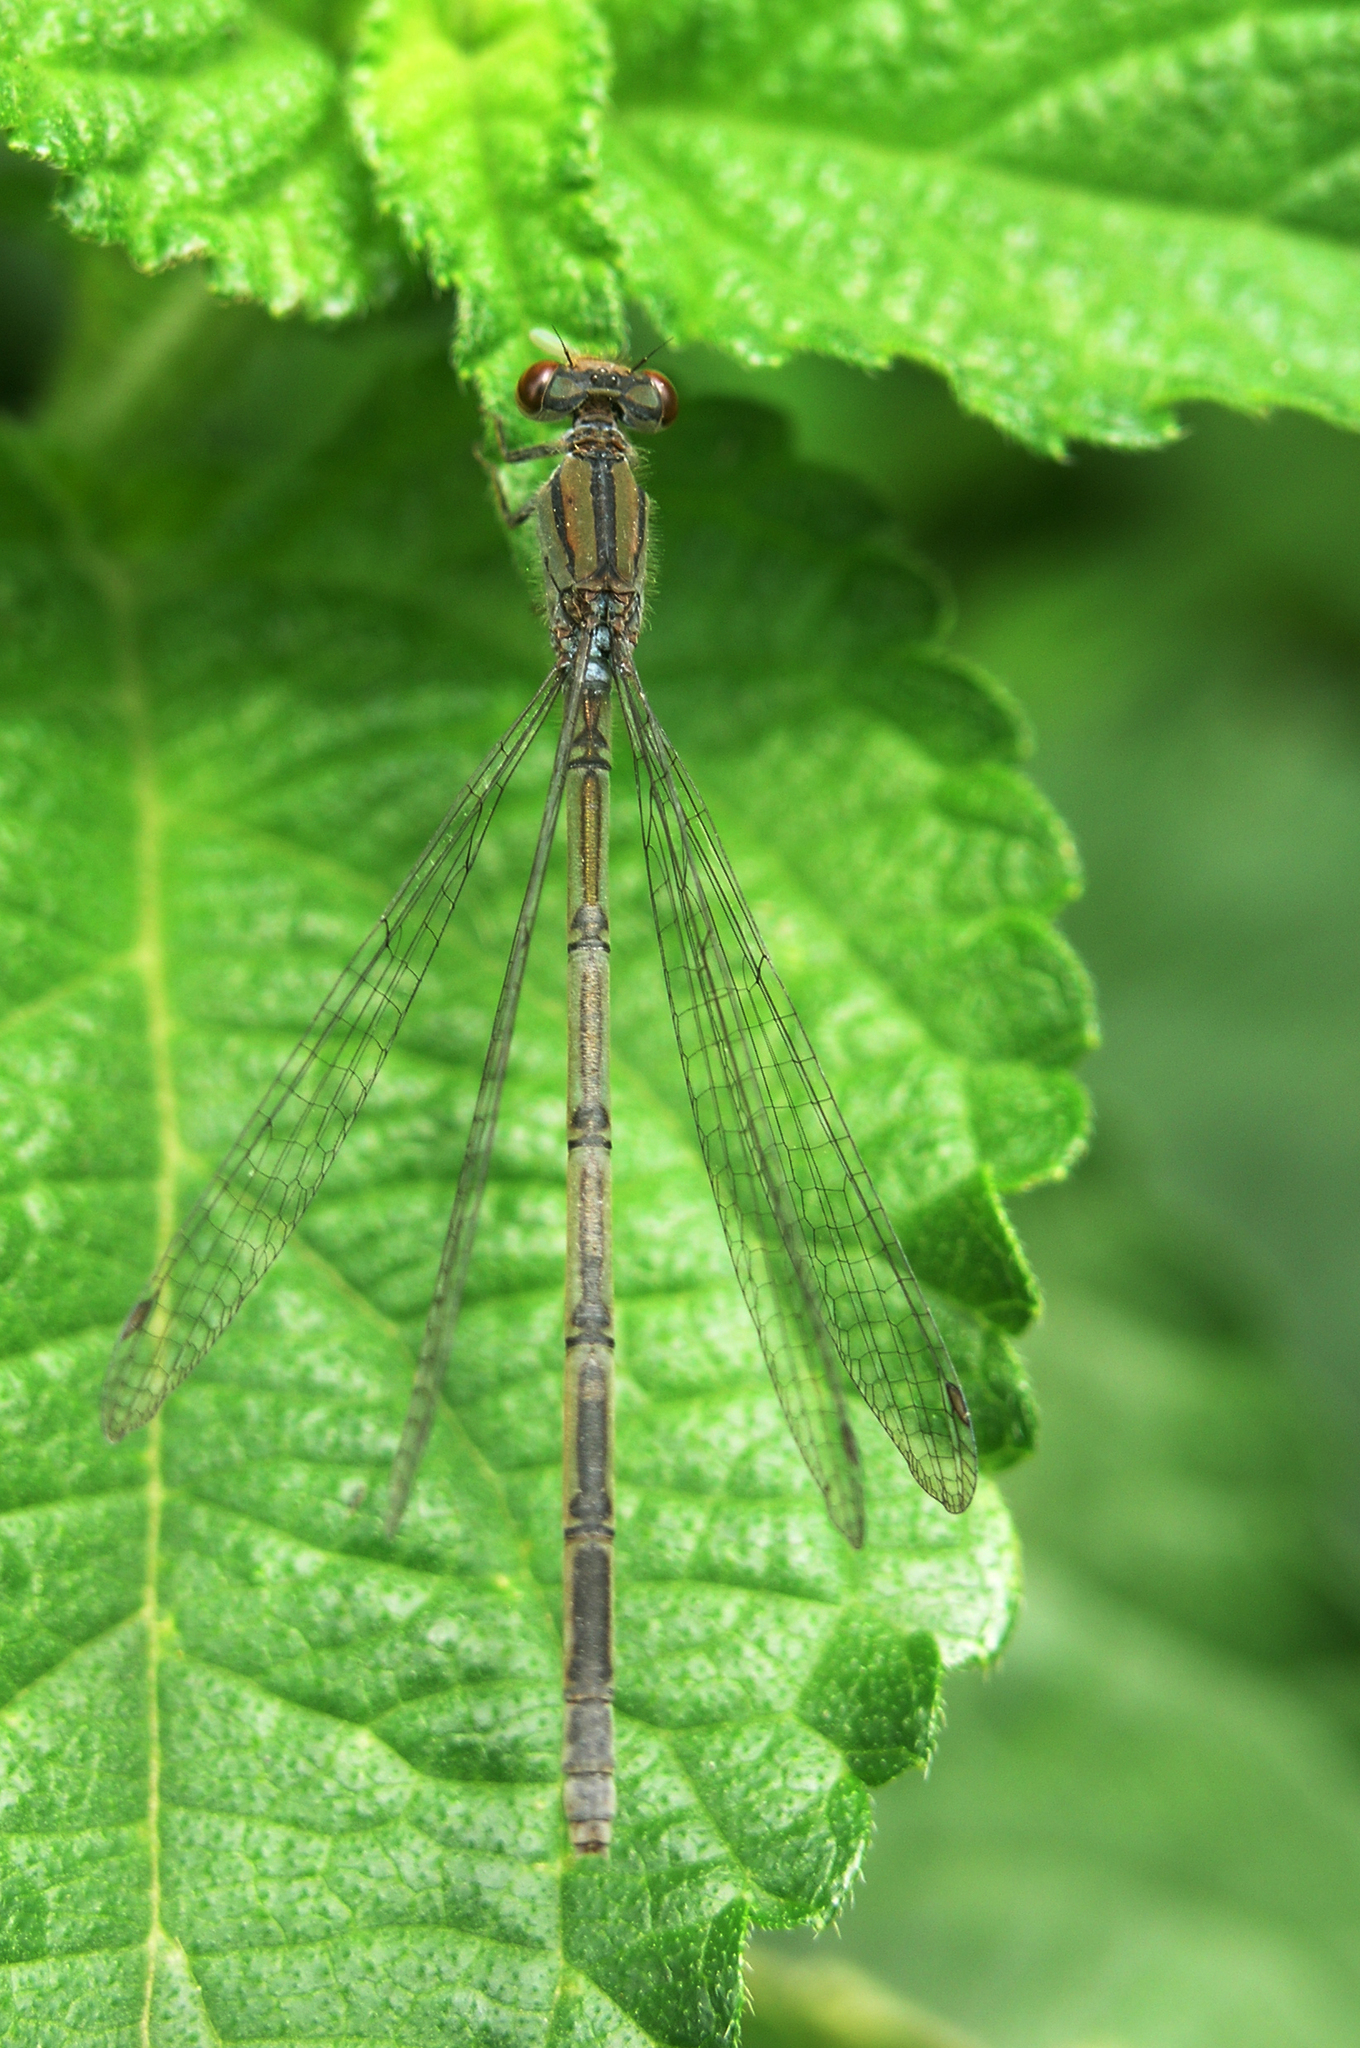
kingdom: Animalia
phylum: Arthropoda
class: Insecta
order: Odonata
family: Coenagrionidae
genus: Pseudagrion
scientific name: Pseudagrion hamoni
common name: Swarthy sprite
